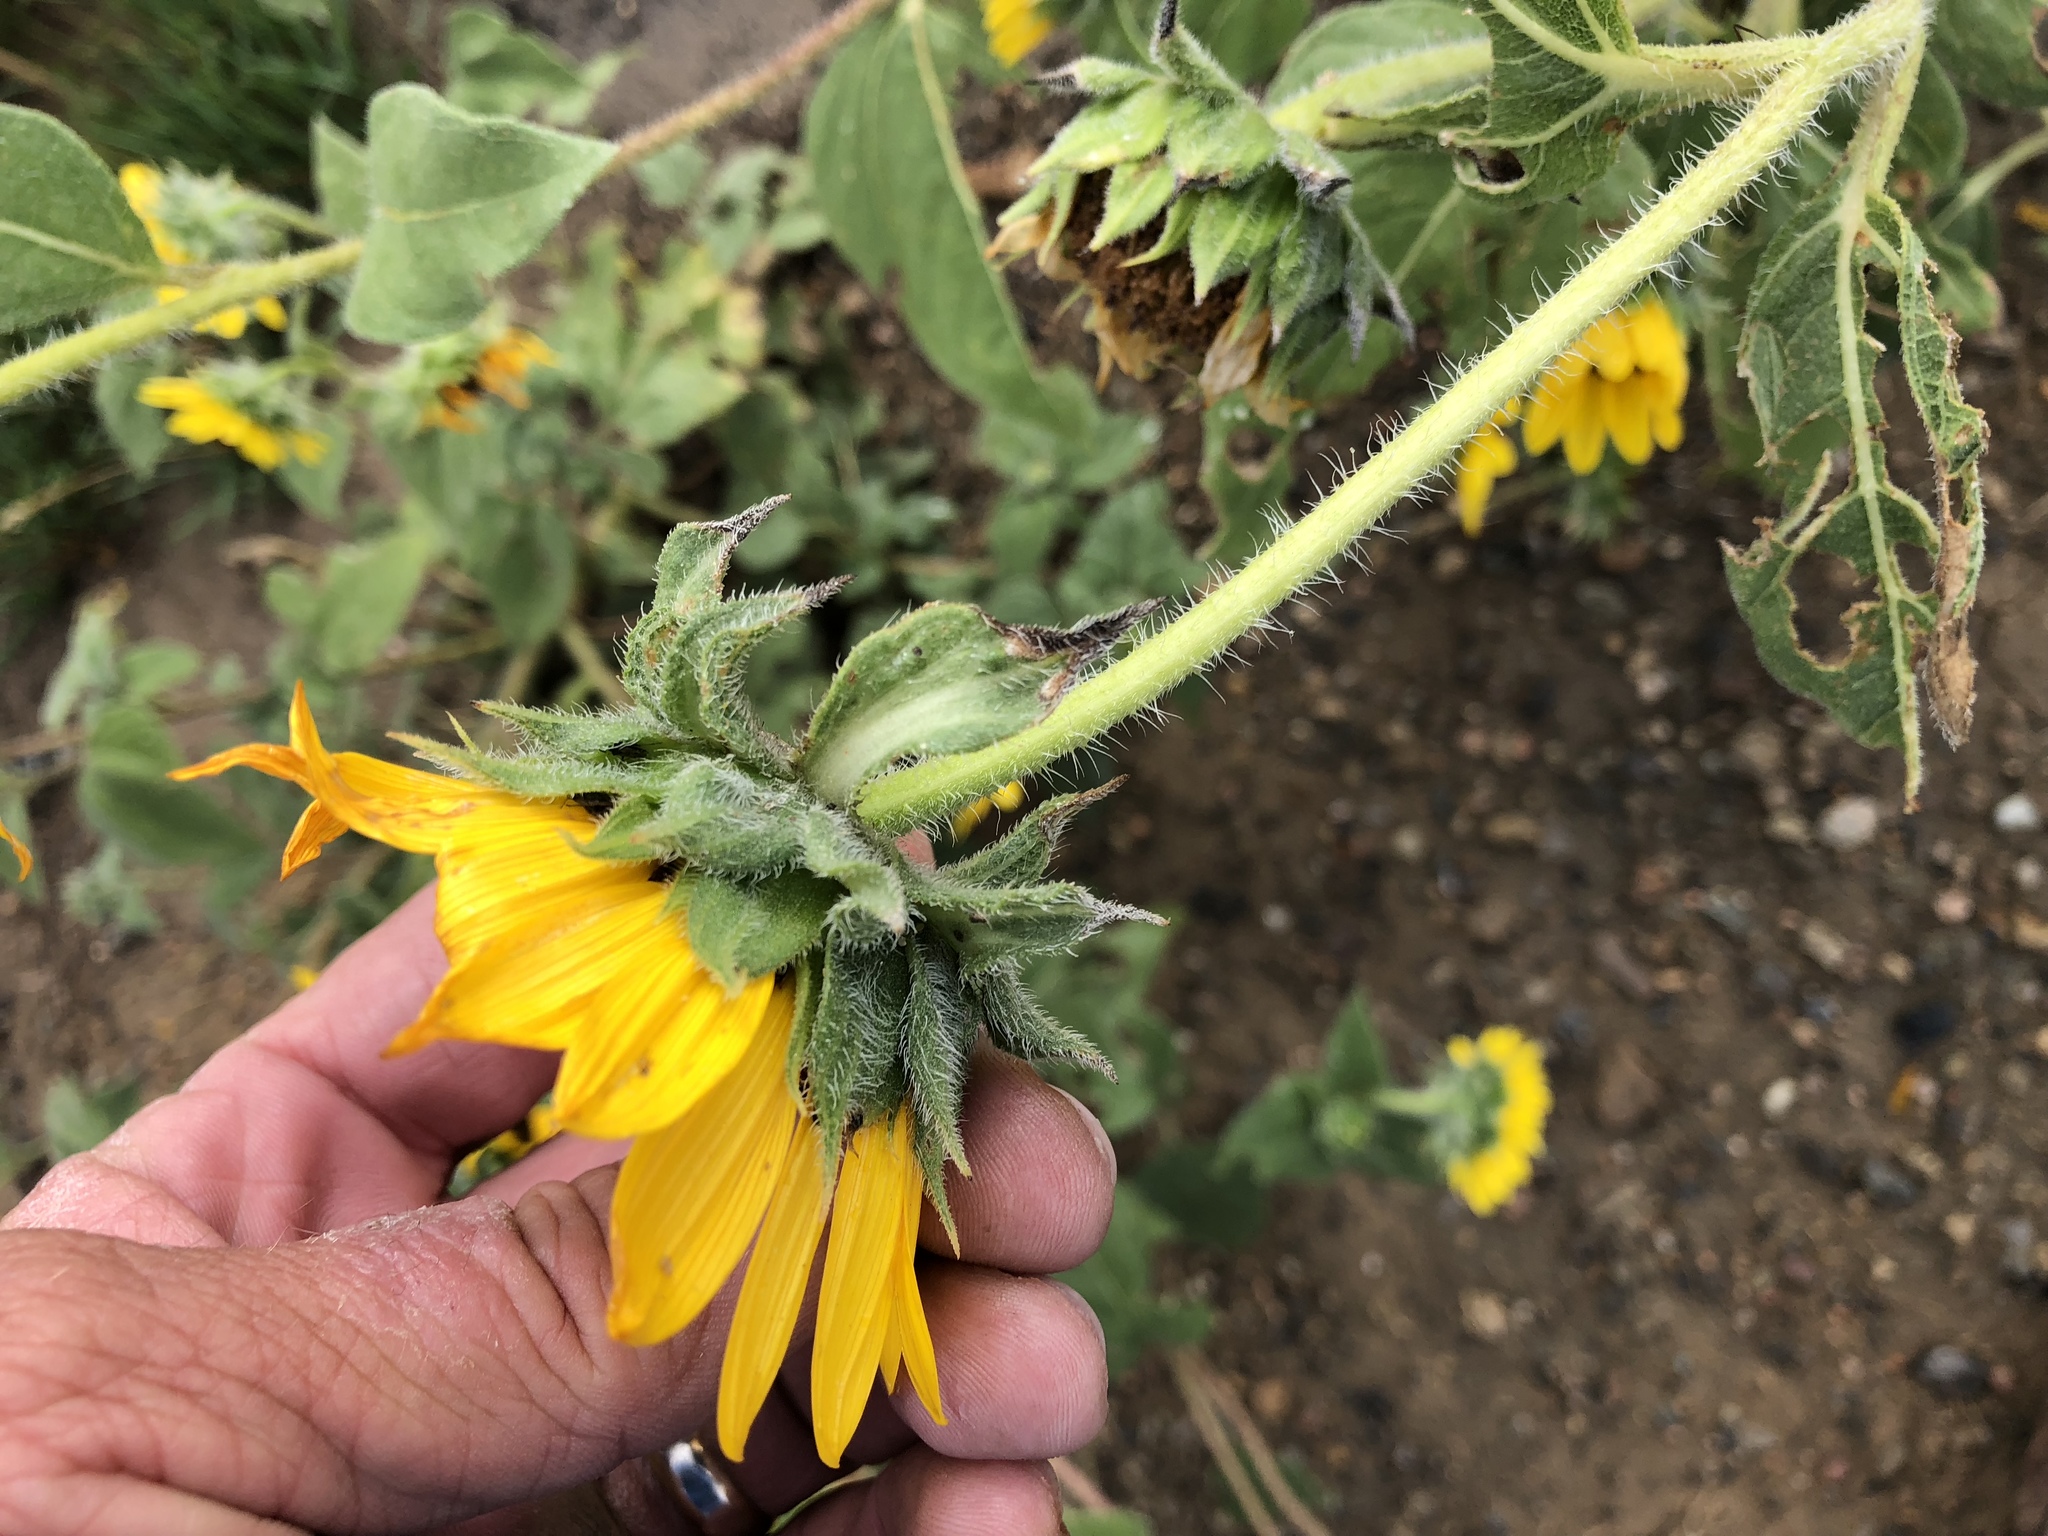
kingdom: Plantae
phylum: Tracheophyta
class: Magnoliopsida
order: Asterales
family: Asteraceae
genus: Helianthus
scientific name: Helianthus annuus
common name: Sunflower
